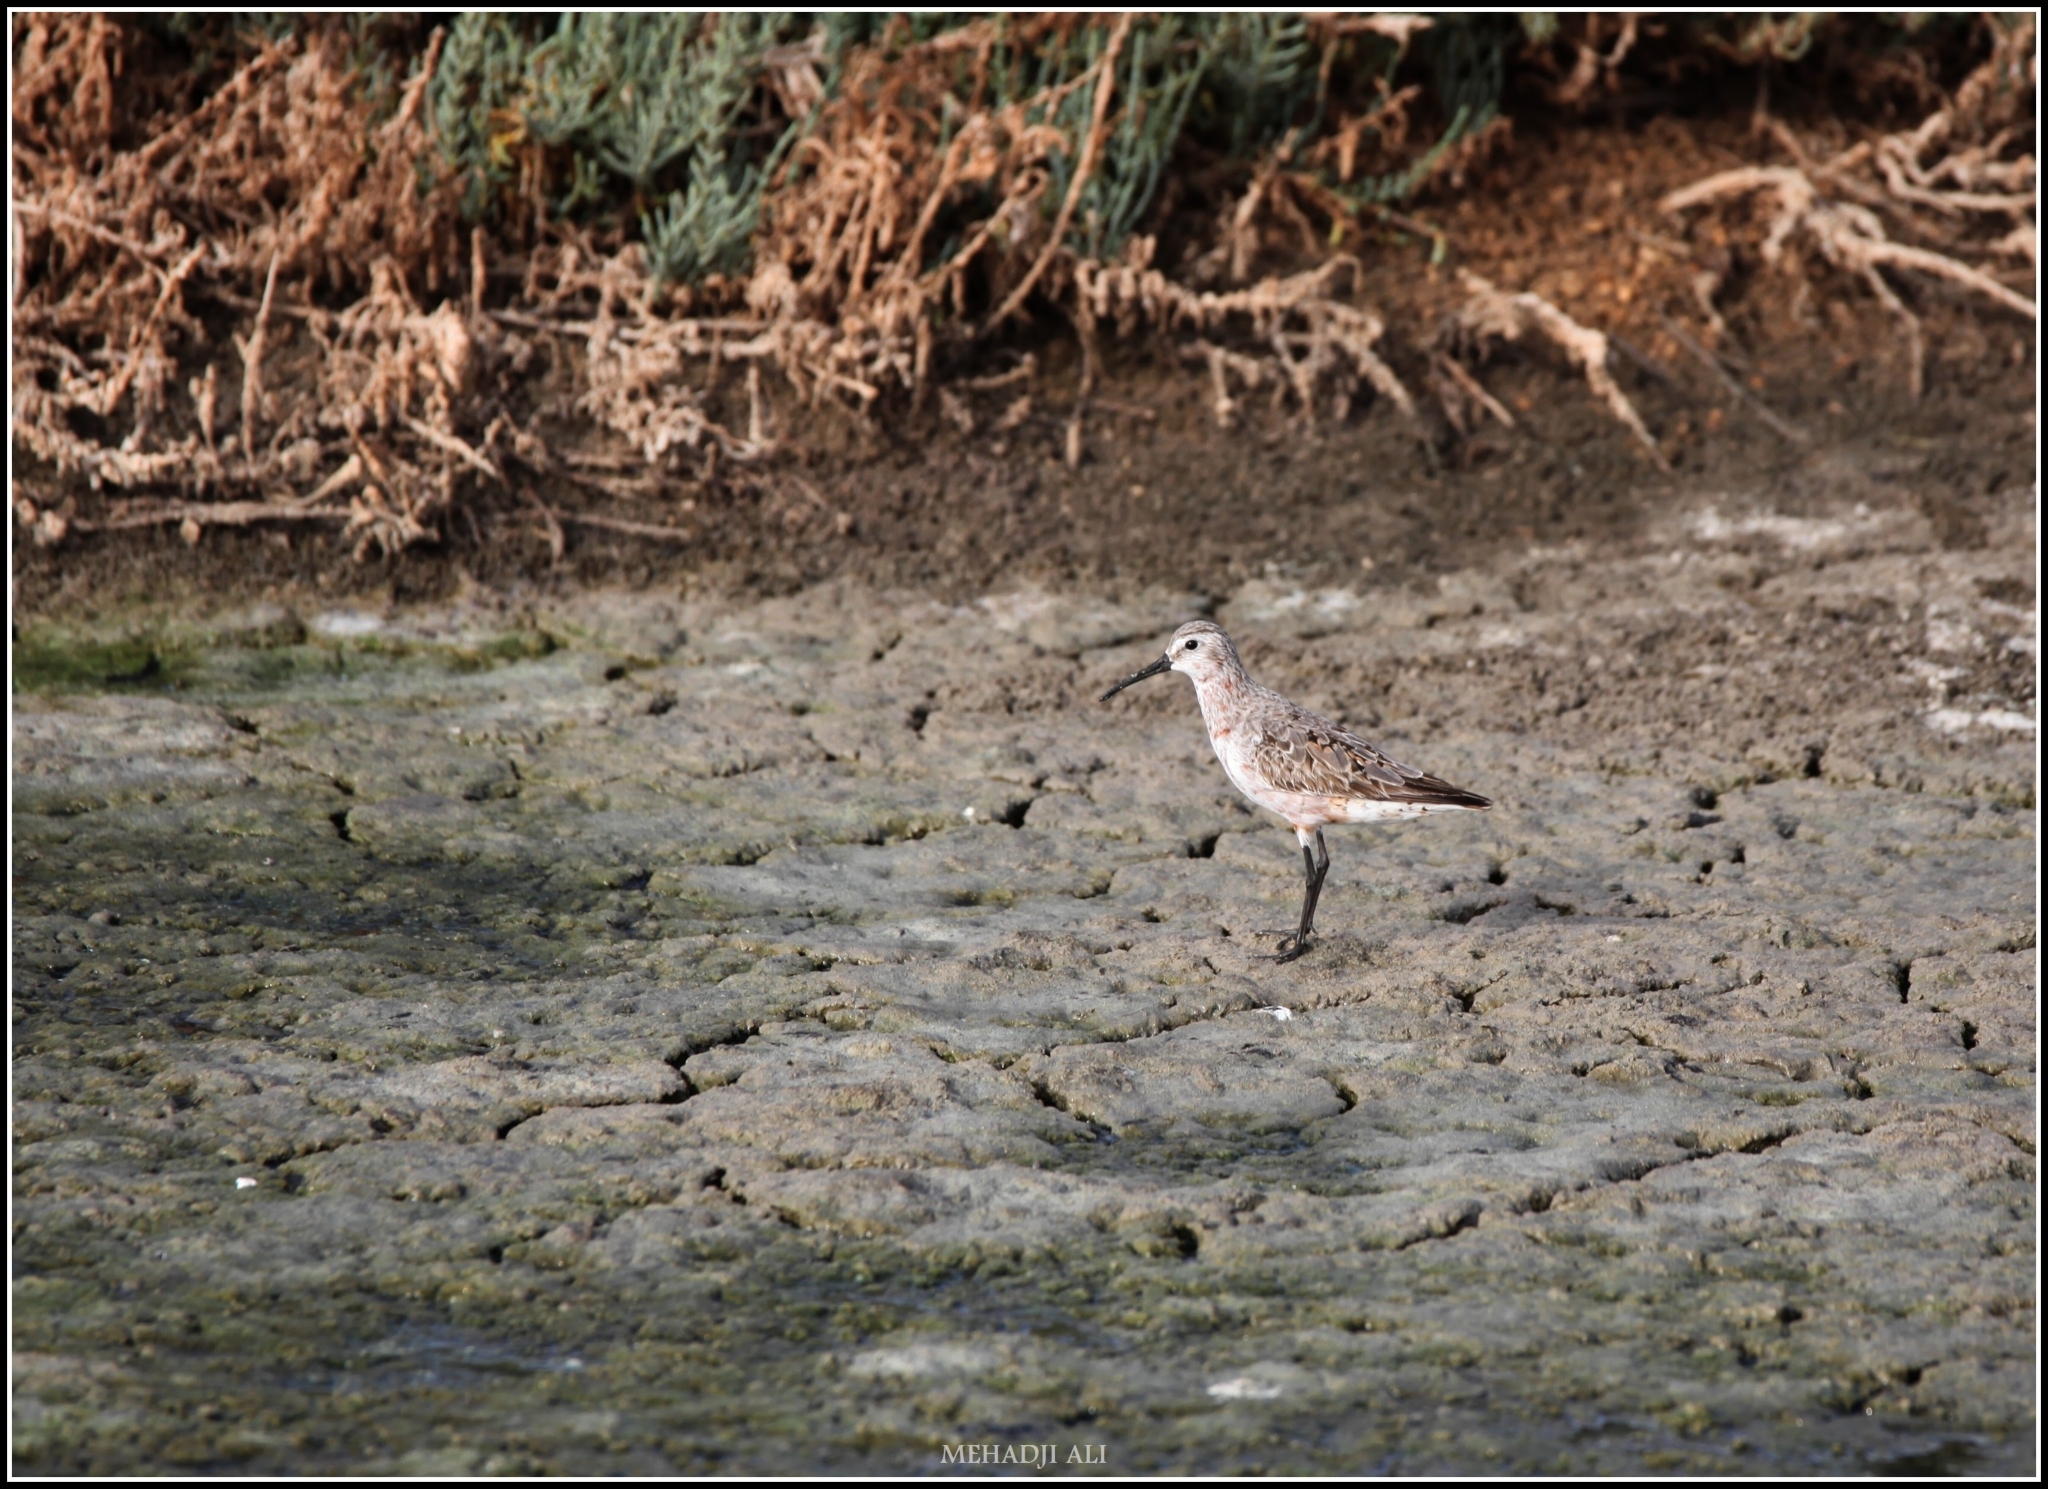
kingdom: Animalia
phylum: Chordata
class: Aves
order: Charadriiformes
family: Scolopacidae
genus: Calidris
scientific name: Calidris ferruginea
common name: Curlew sandpiper
